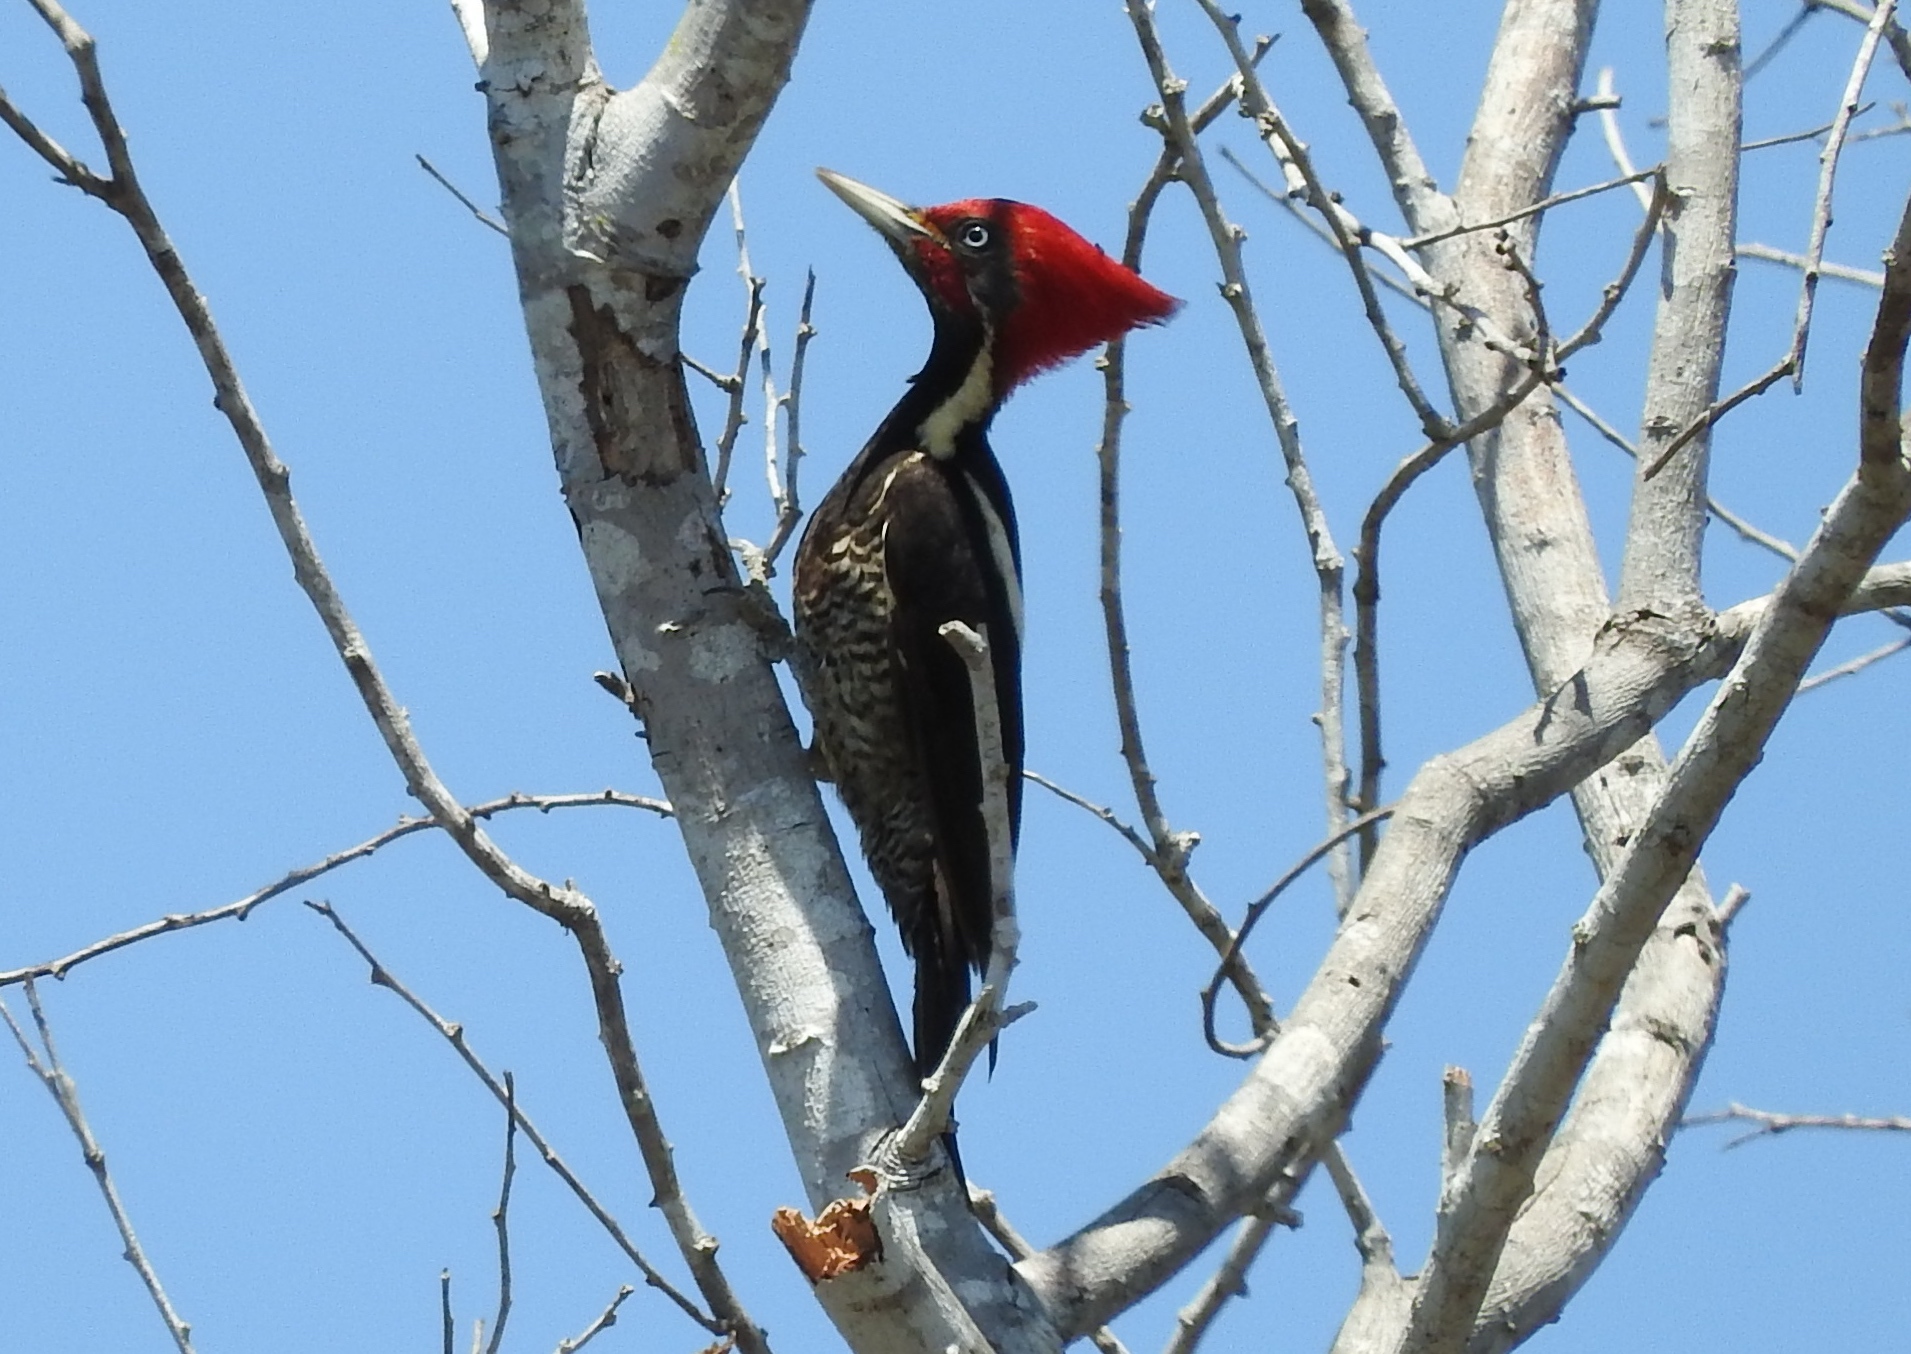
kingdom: Animalia
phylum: Chordata
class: Aves
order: Piciformes
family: Picidae
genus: Dryocopus
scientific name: Dryocopus lineatus
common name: Lineated woodpecker
